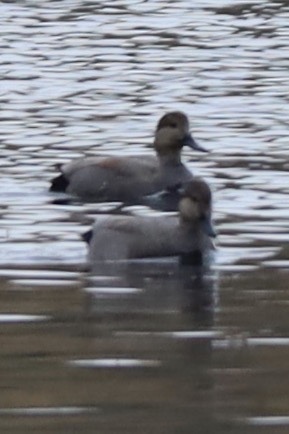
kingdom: Animalia
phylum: Chordata
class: Aves
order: Anseriformes
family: Anatidae
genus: Mareca
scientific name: Mareca strepera
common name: Gadwall
